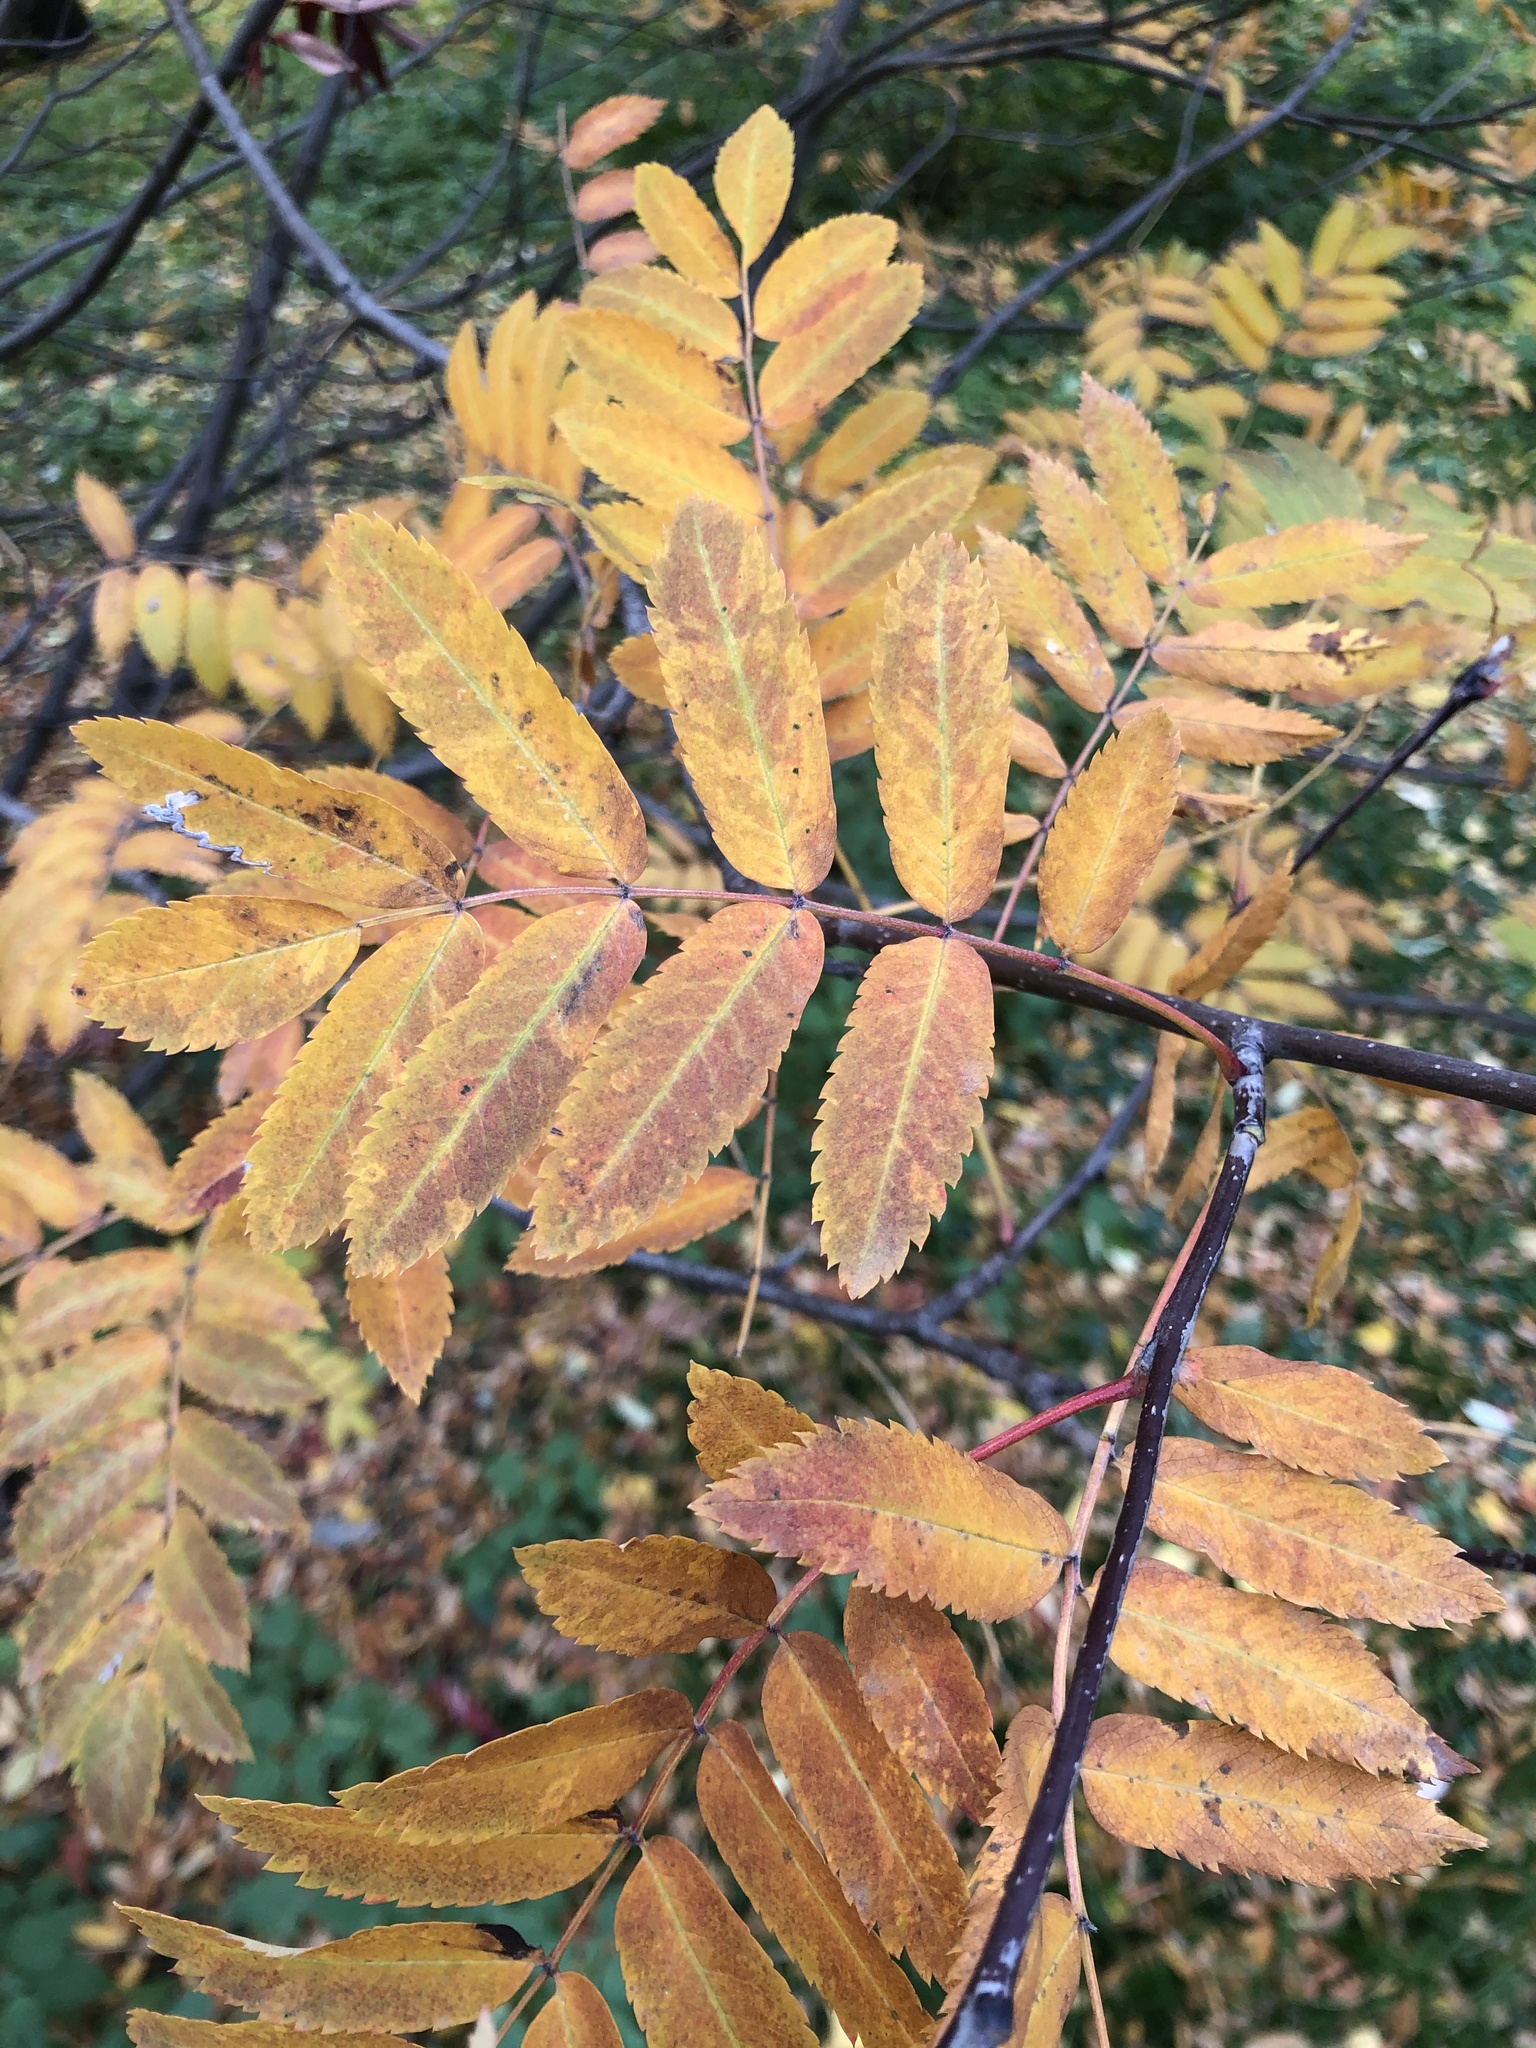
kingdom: Plantae
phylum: Tracheophyta
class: Magnoliopsida
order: Rosales
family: Rosaceae
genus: Sorbus
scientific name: Sorbus aucuparia
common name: Rowan
